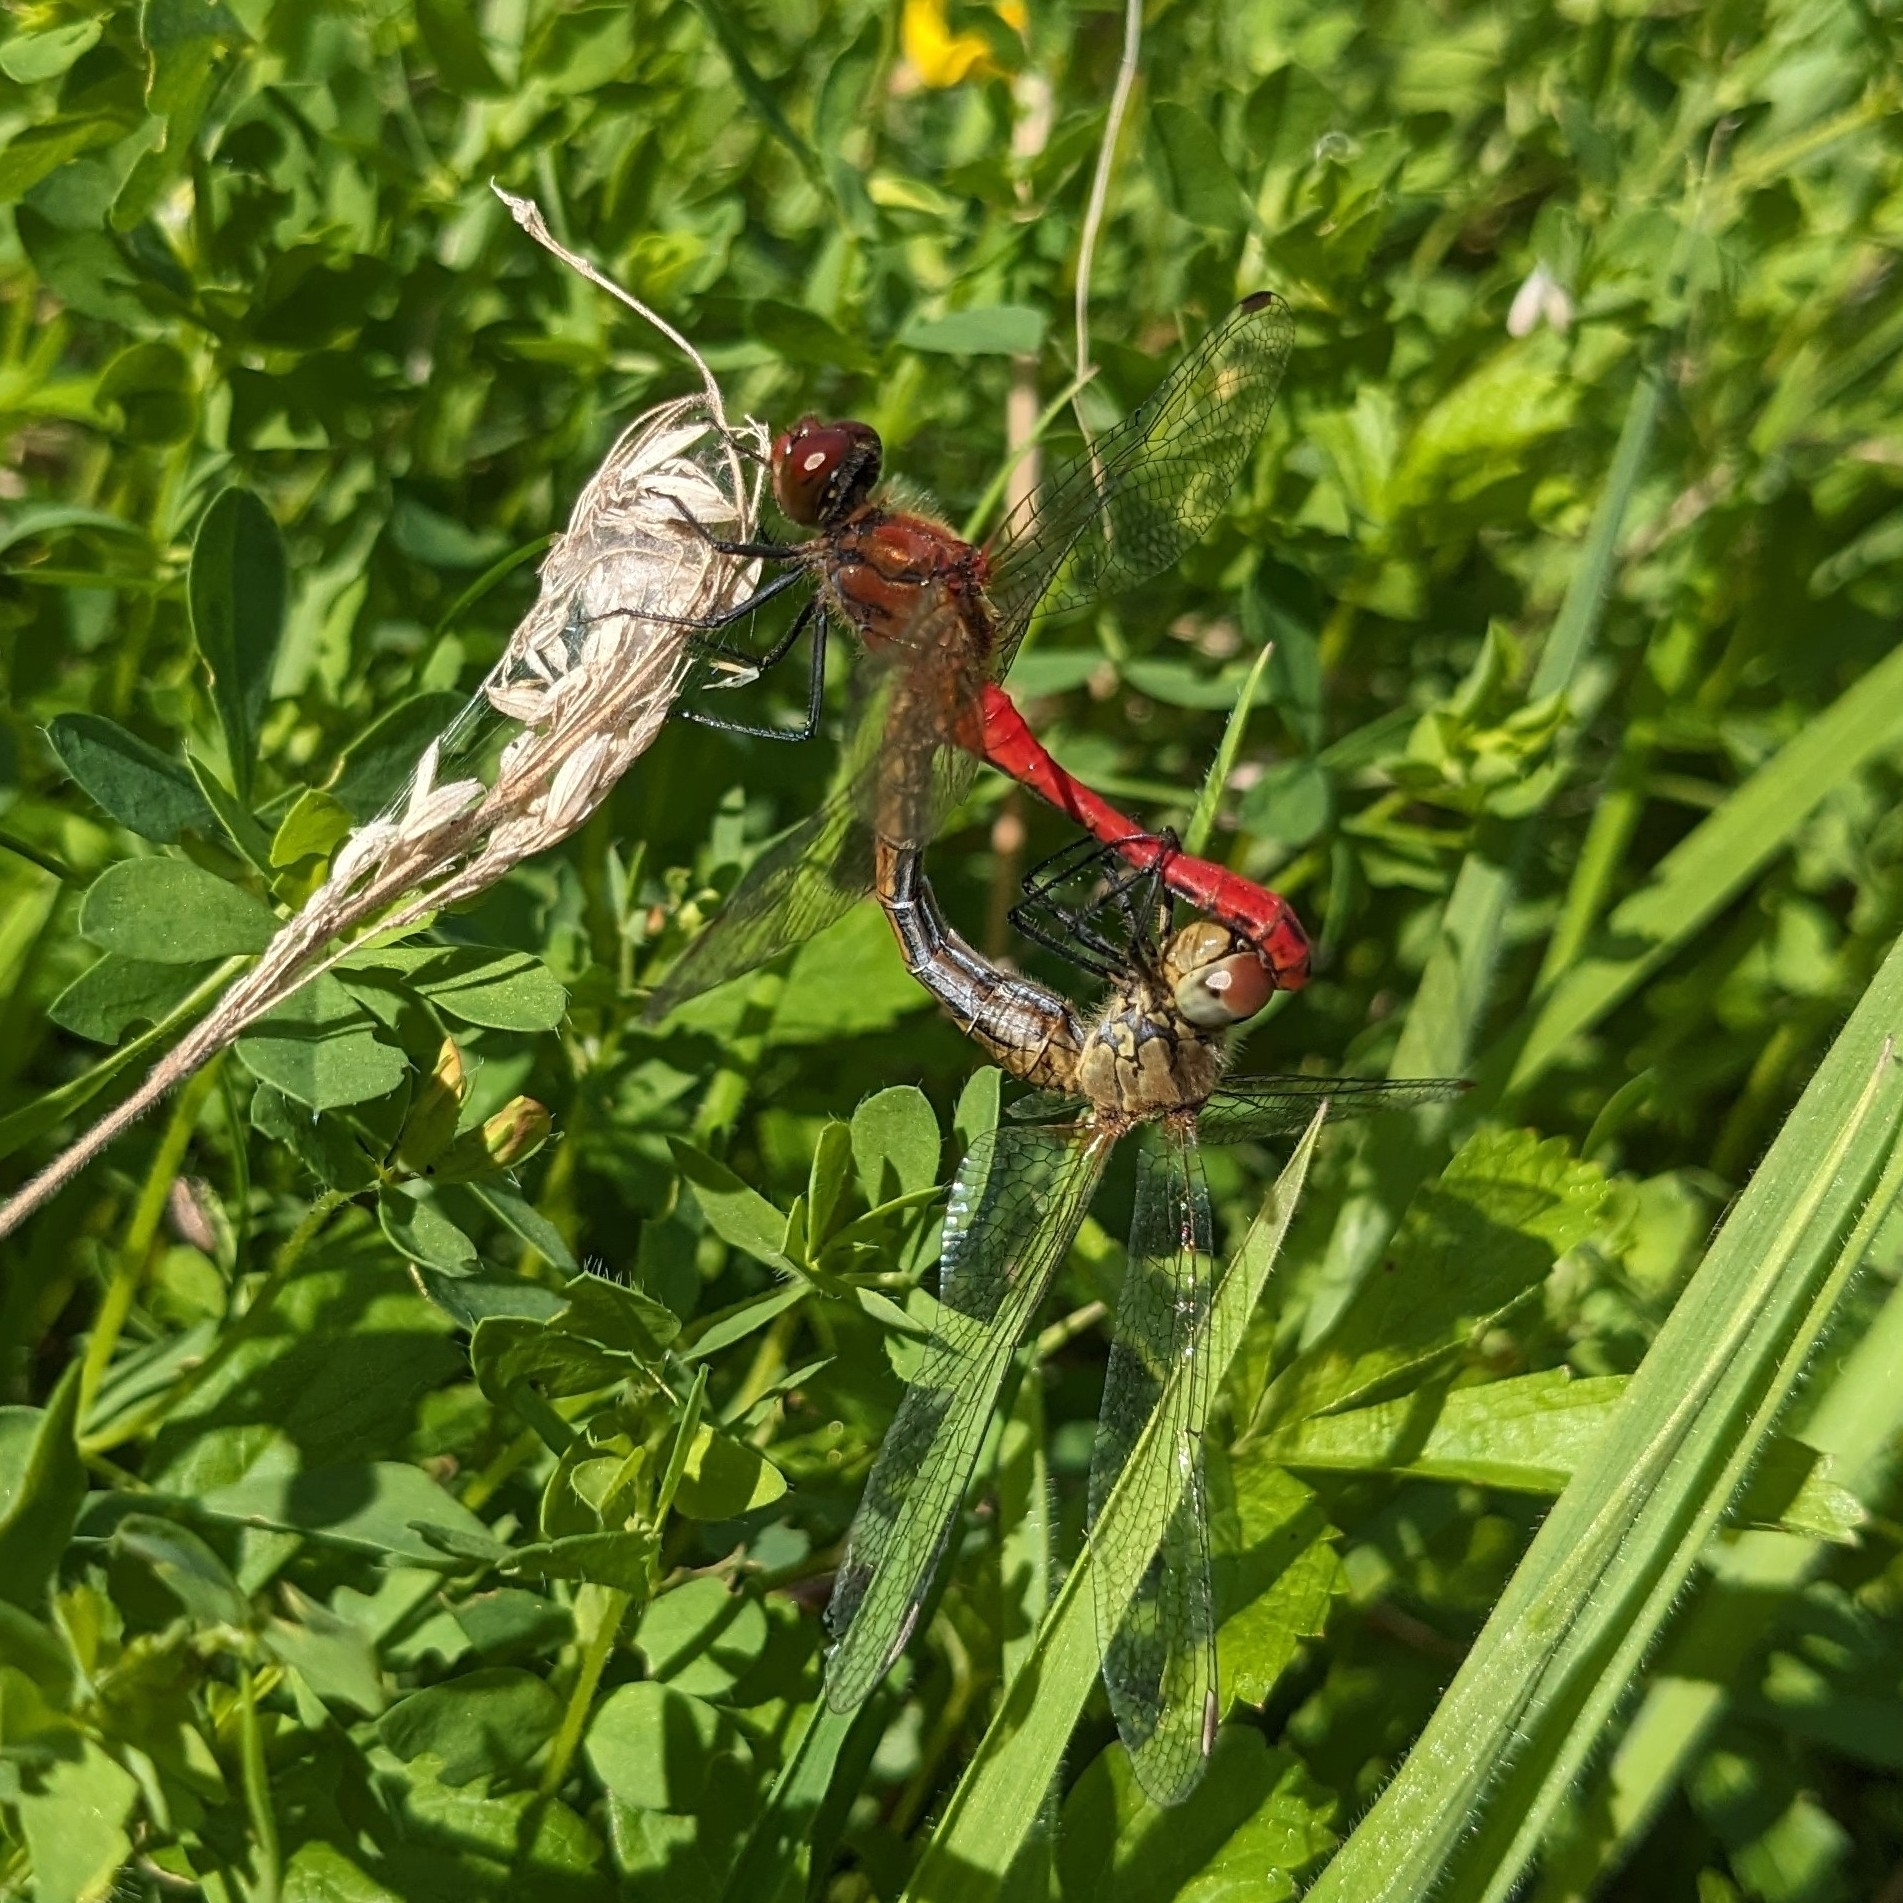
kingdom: Animalia
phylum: Arthropoda
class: Insecta
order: Odonata
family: Libellulidae
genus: Sympetrum
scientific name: Sympetrum sanguineum
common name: Ruddy darter
